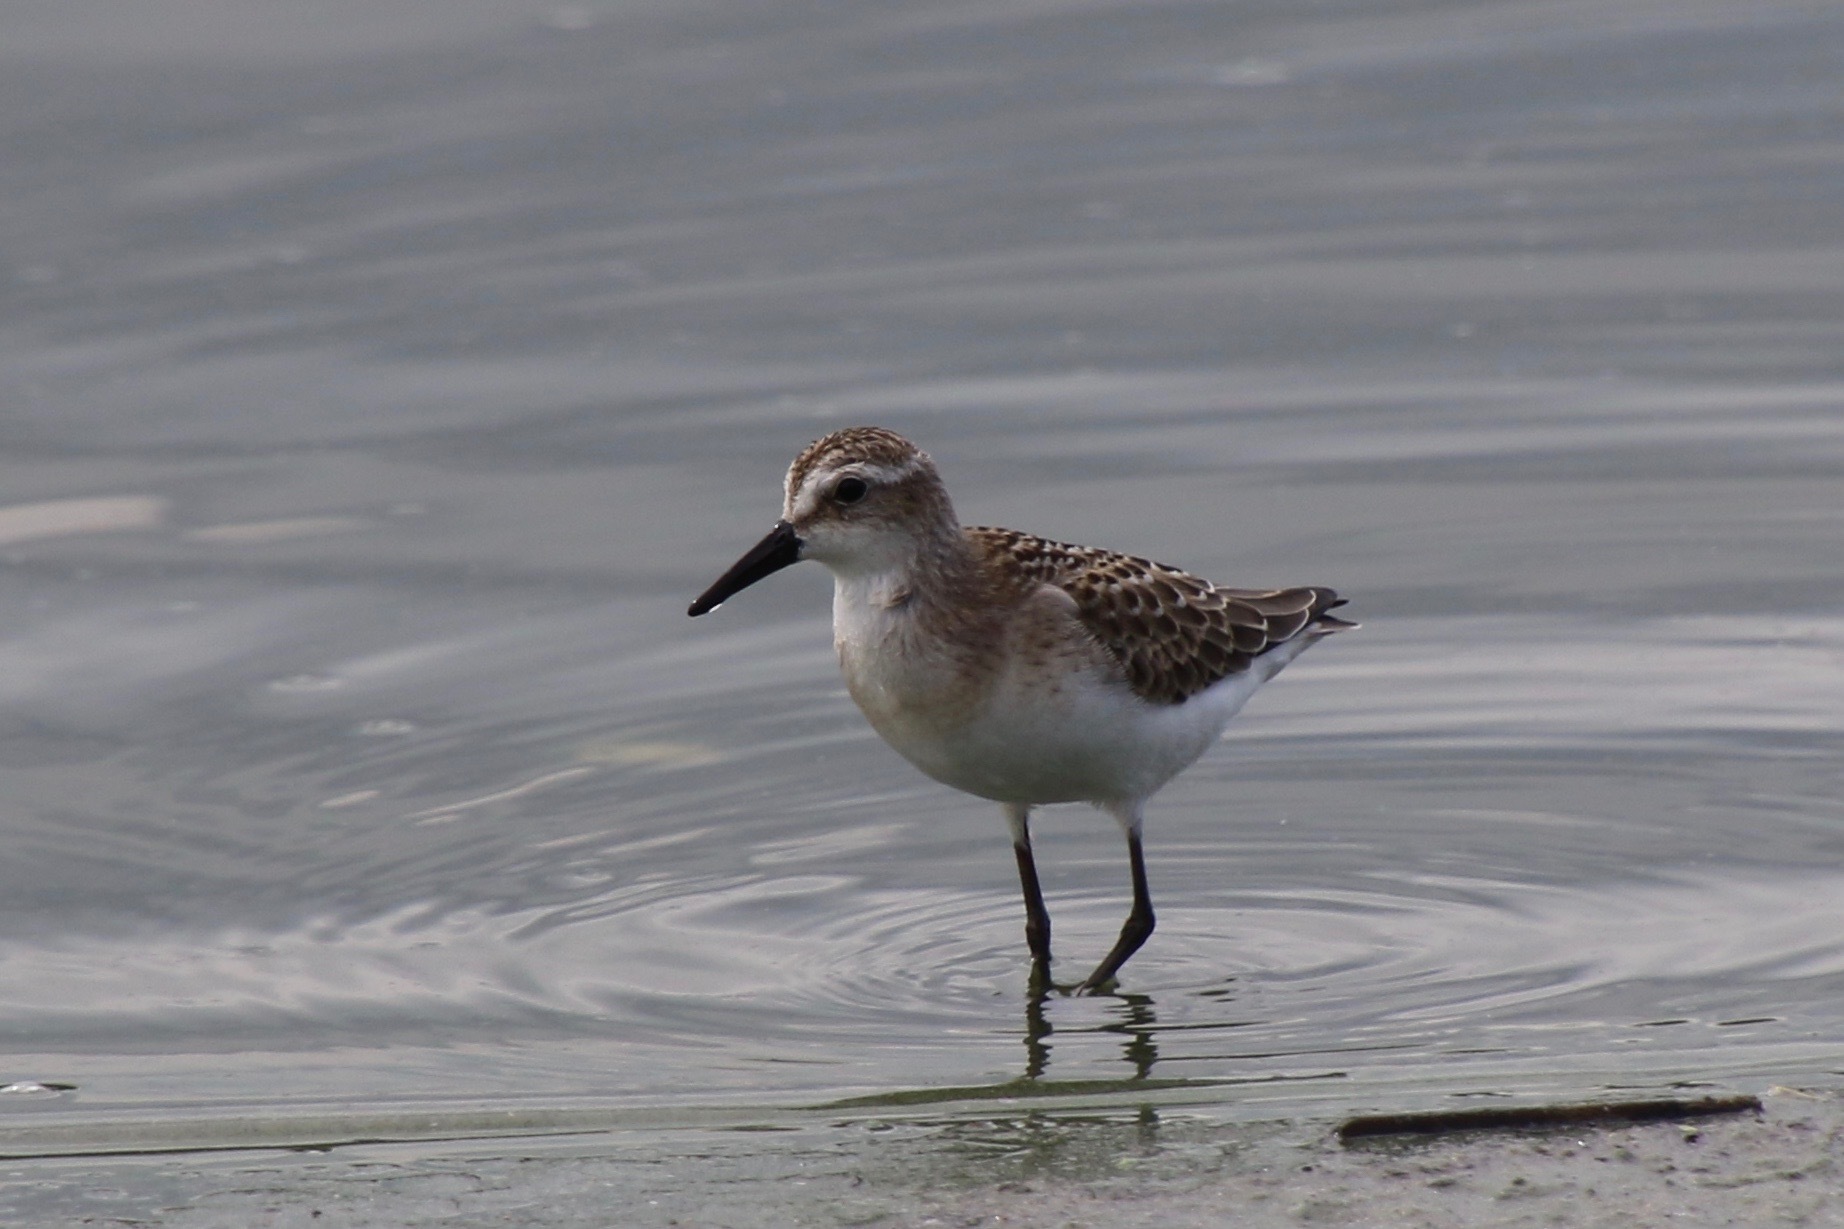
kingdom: Animalia
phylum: Chordata
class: Aves
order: Charadriiformes
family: Scolopacidae
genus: Calidris
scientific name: Calidris pusilla
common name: Semipalmated sandpiper
